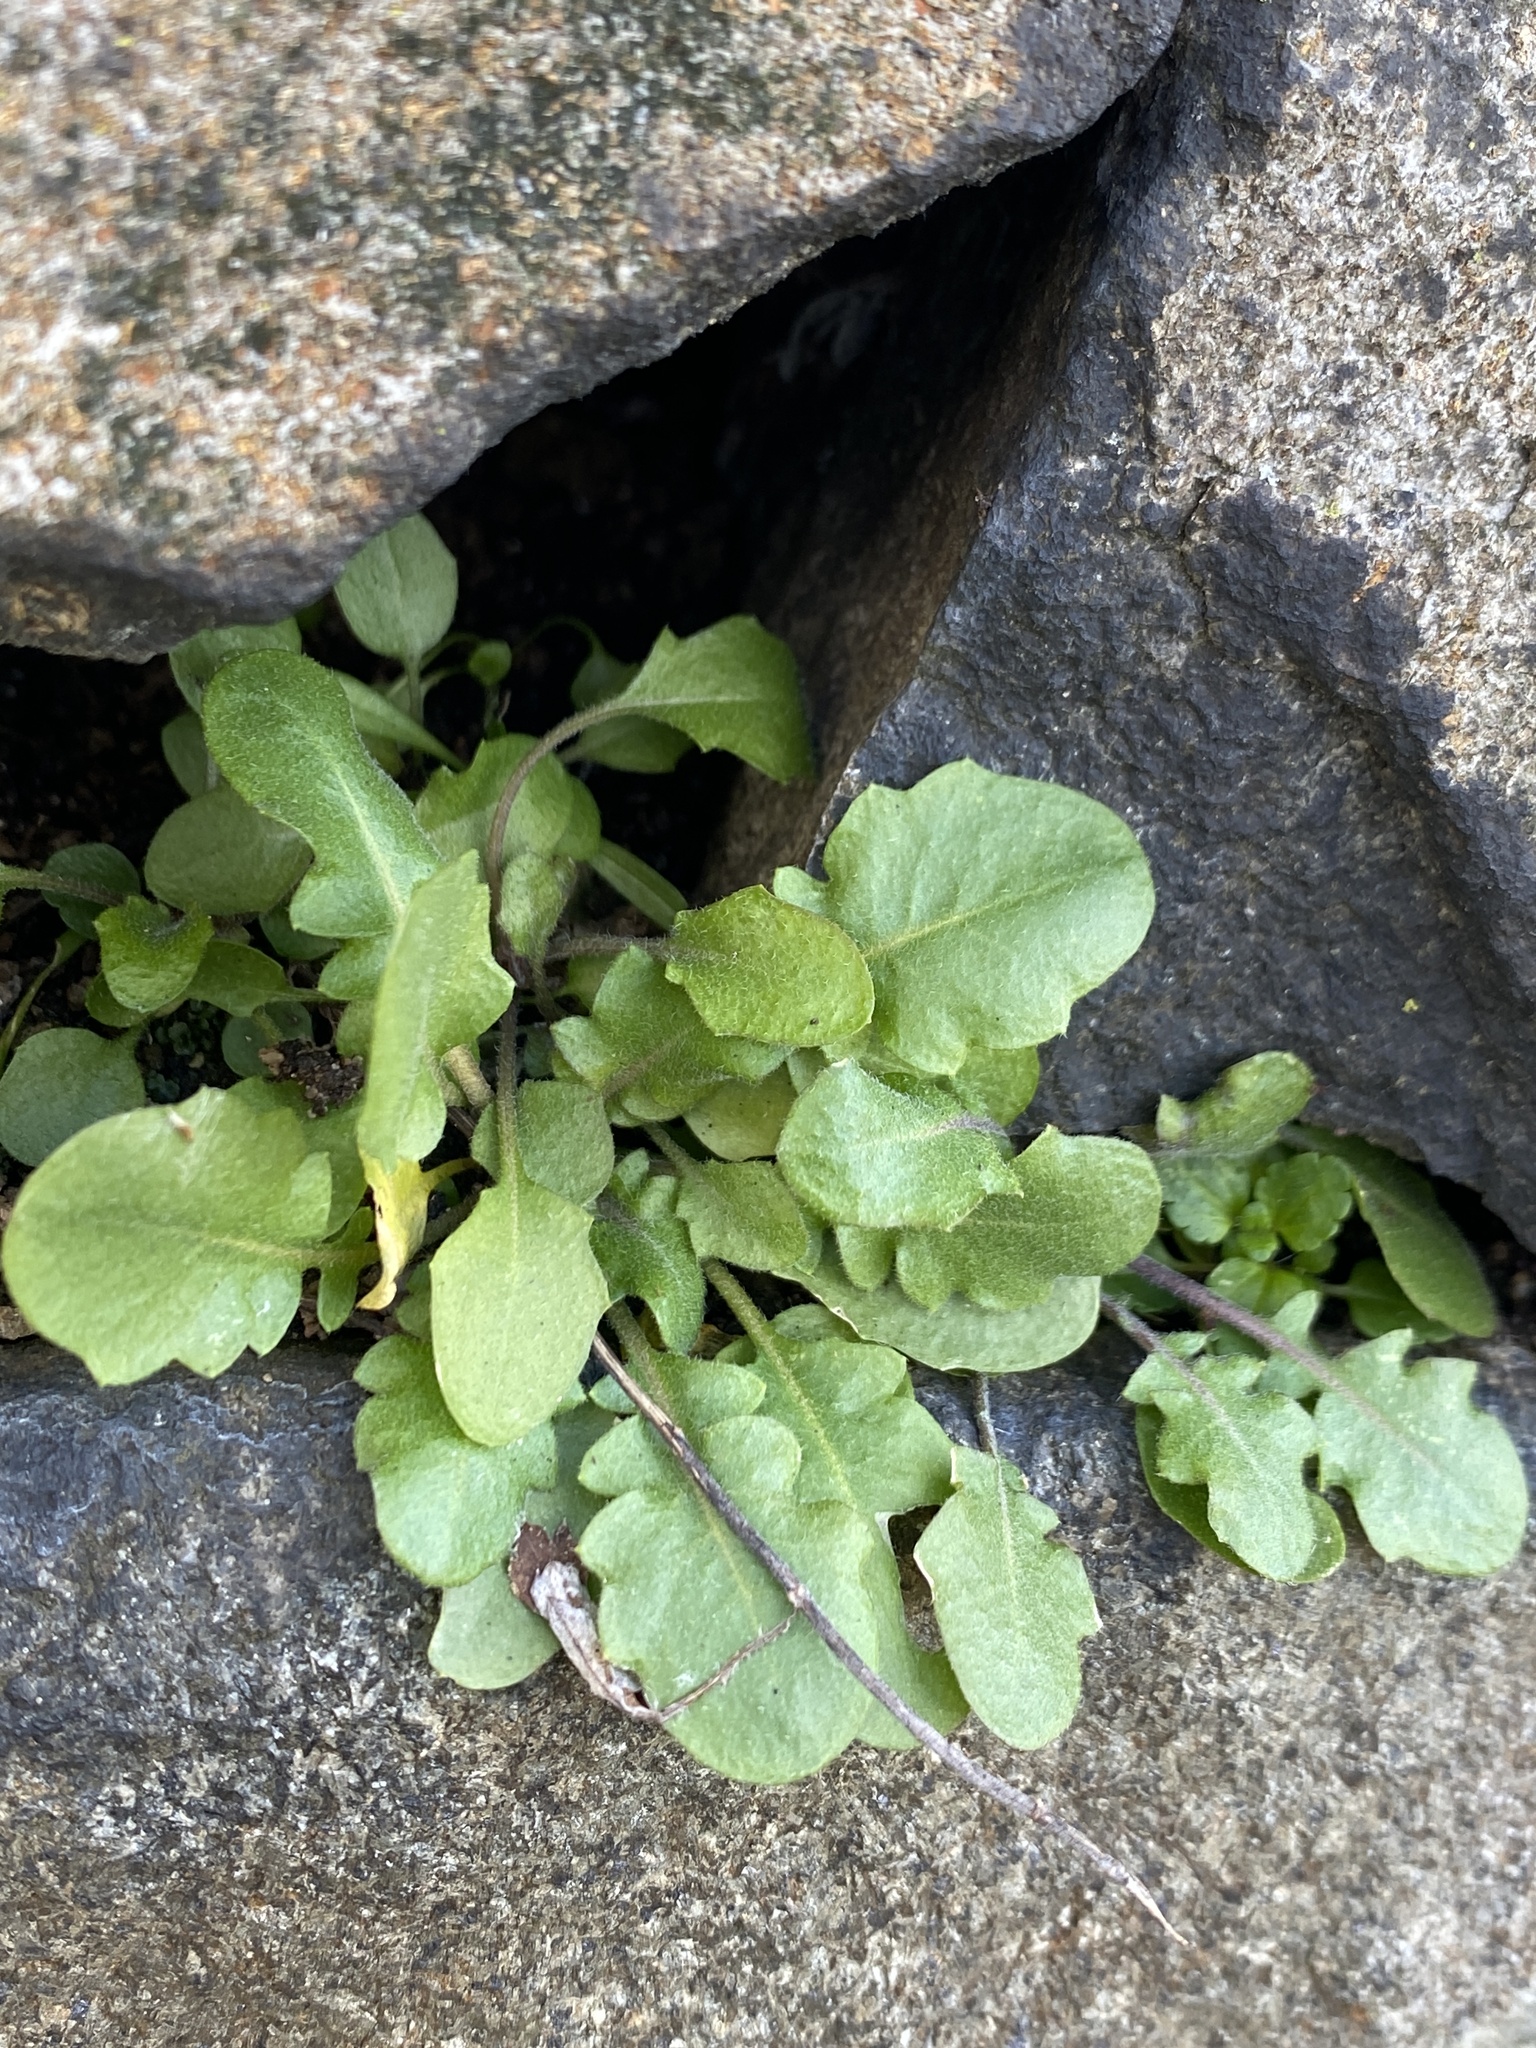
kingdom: Plantae
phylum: Tracheophyta
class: Magnoliopsida
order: Brassicales
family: Brassicaceae
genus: Arabidopsis
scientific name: Arabidopsis lyrata
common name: Lyrate rockcress
